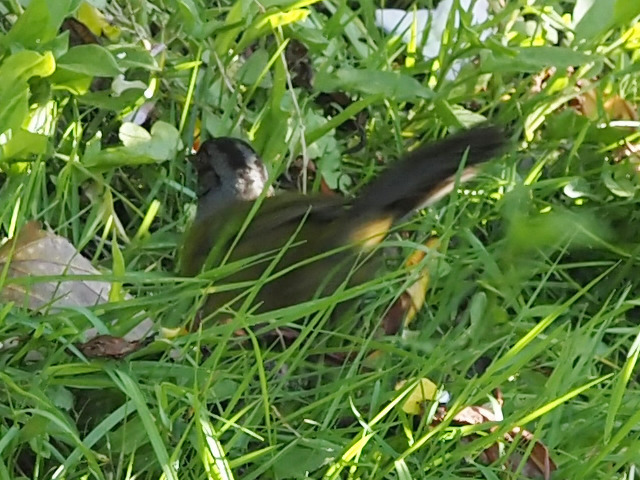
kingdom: Animalia
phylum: Chordata
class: Aves
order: Passeriformes
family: Passerellidae
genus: Pezopetes
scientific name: Pezopetes capitalis
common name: Large-footed finch
